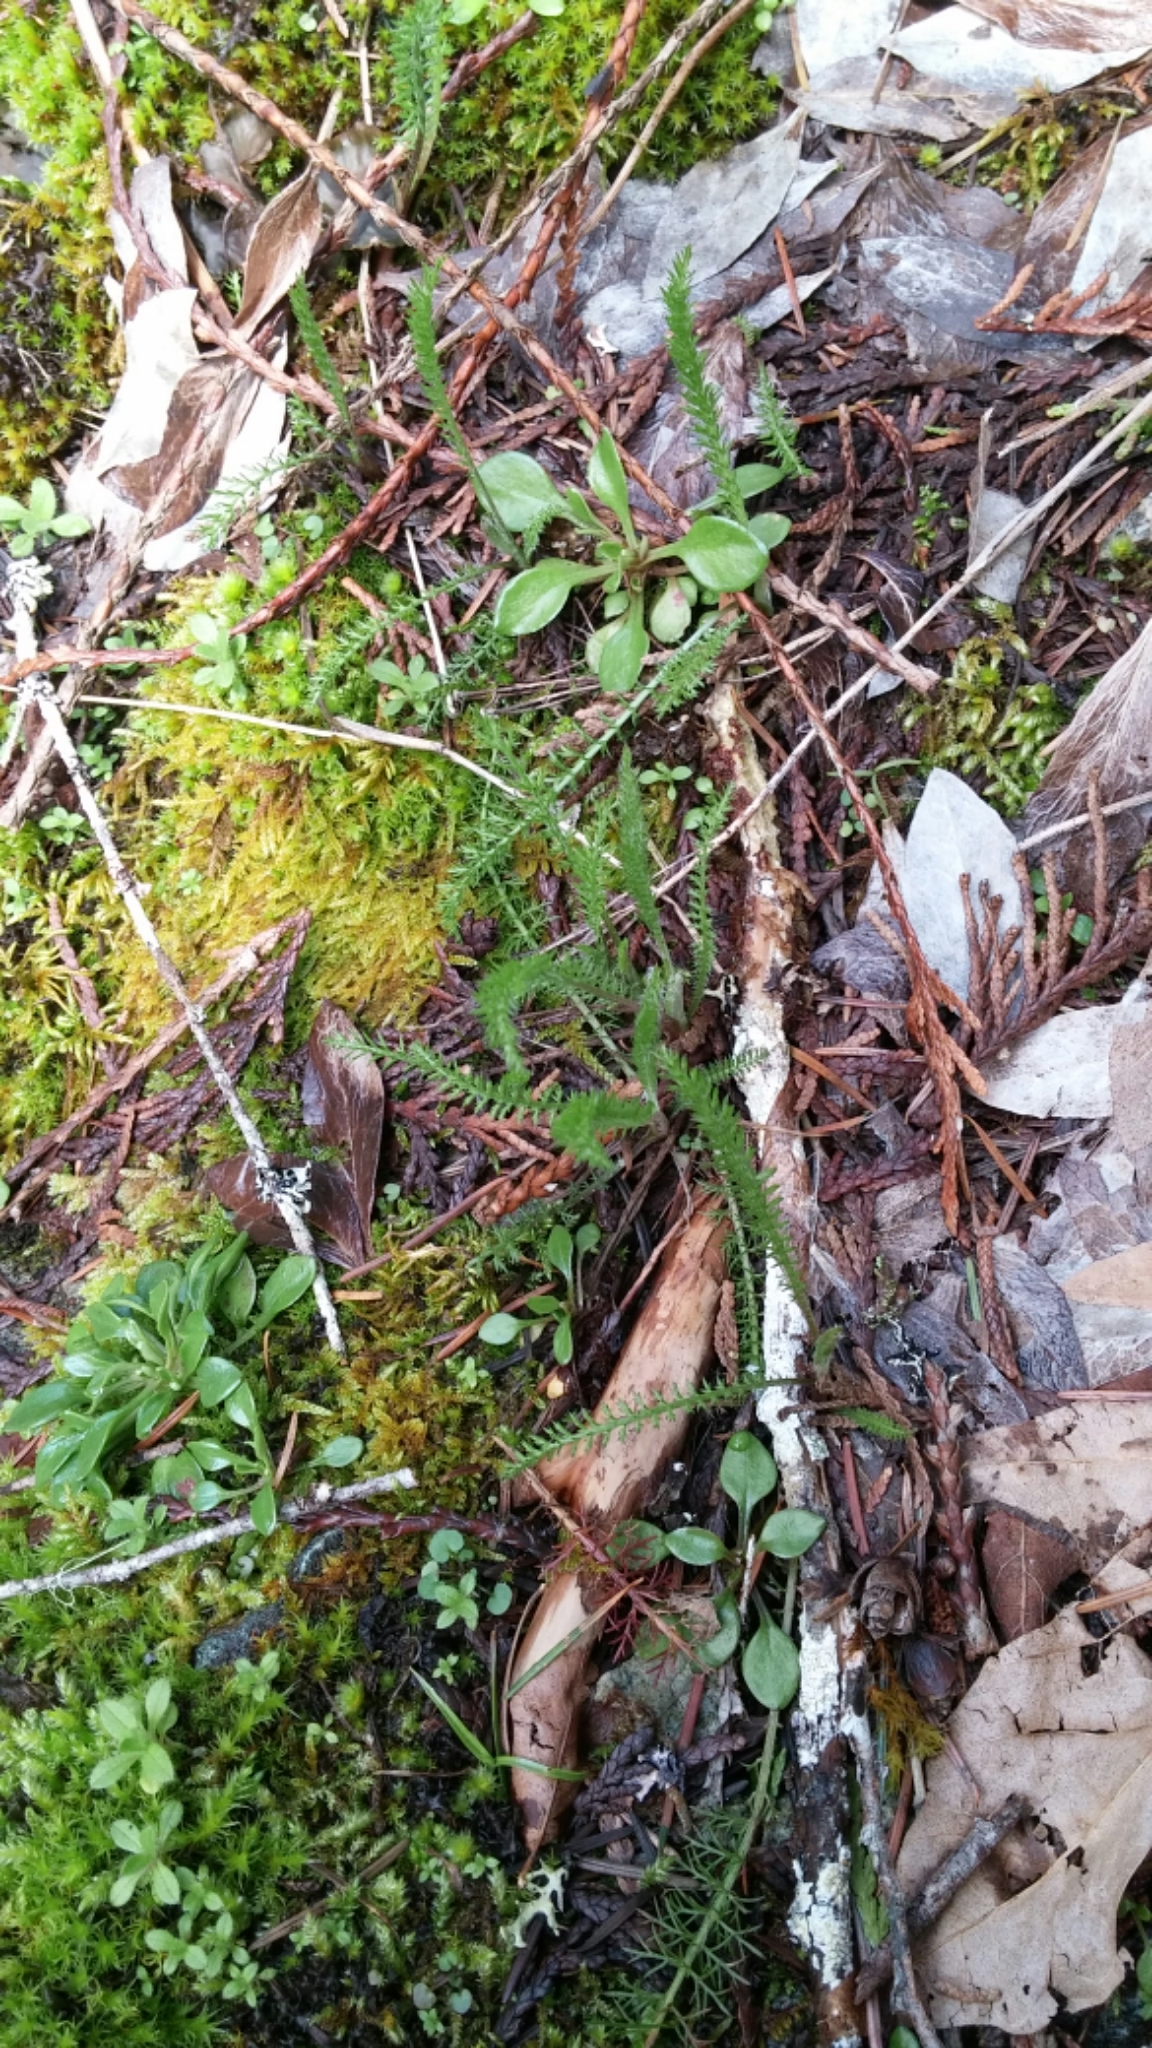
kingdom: Plantae
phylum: Tracheophyta
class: Magnoliopsida
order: Asterales
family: Asteraceae
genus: Achillea
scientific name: Achillea millefolium
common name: Yarrow
